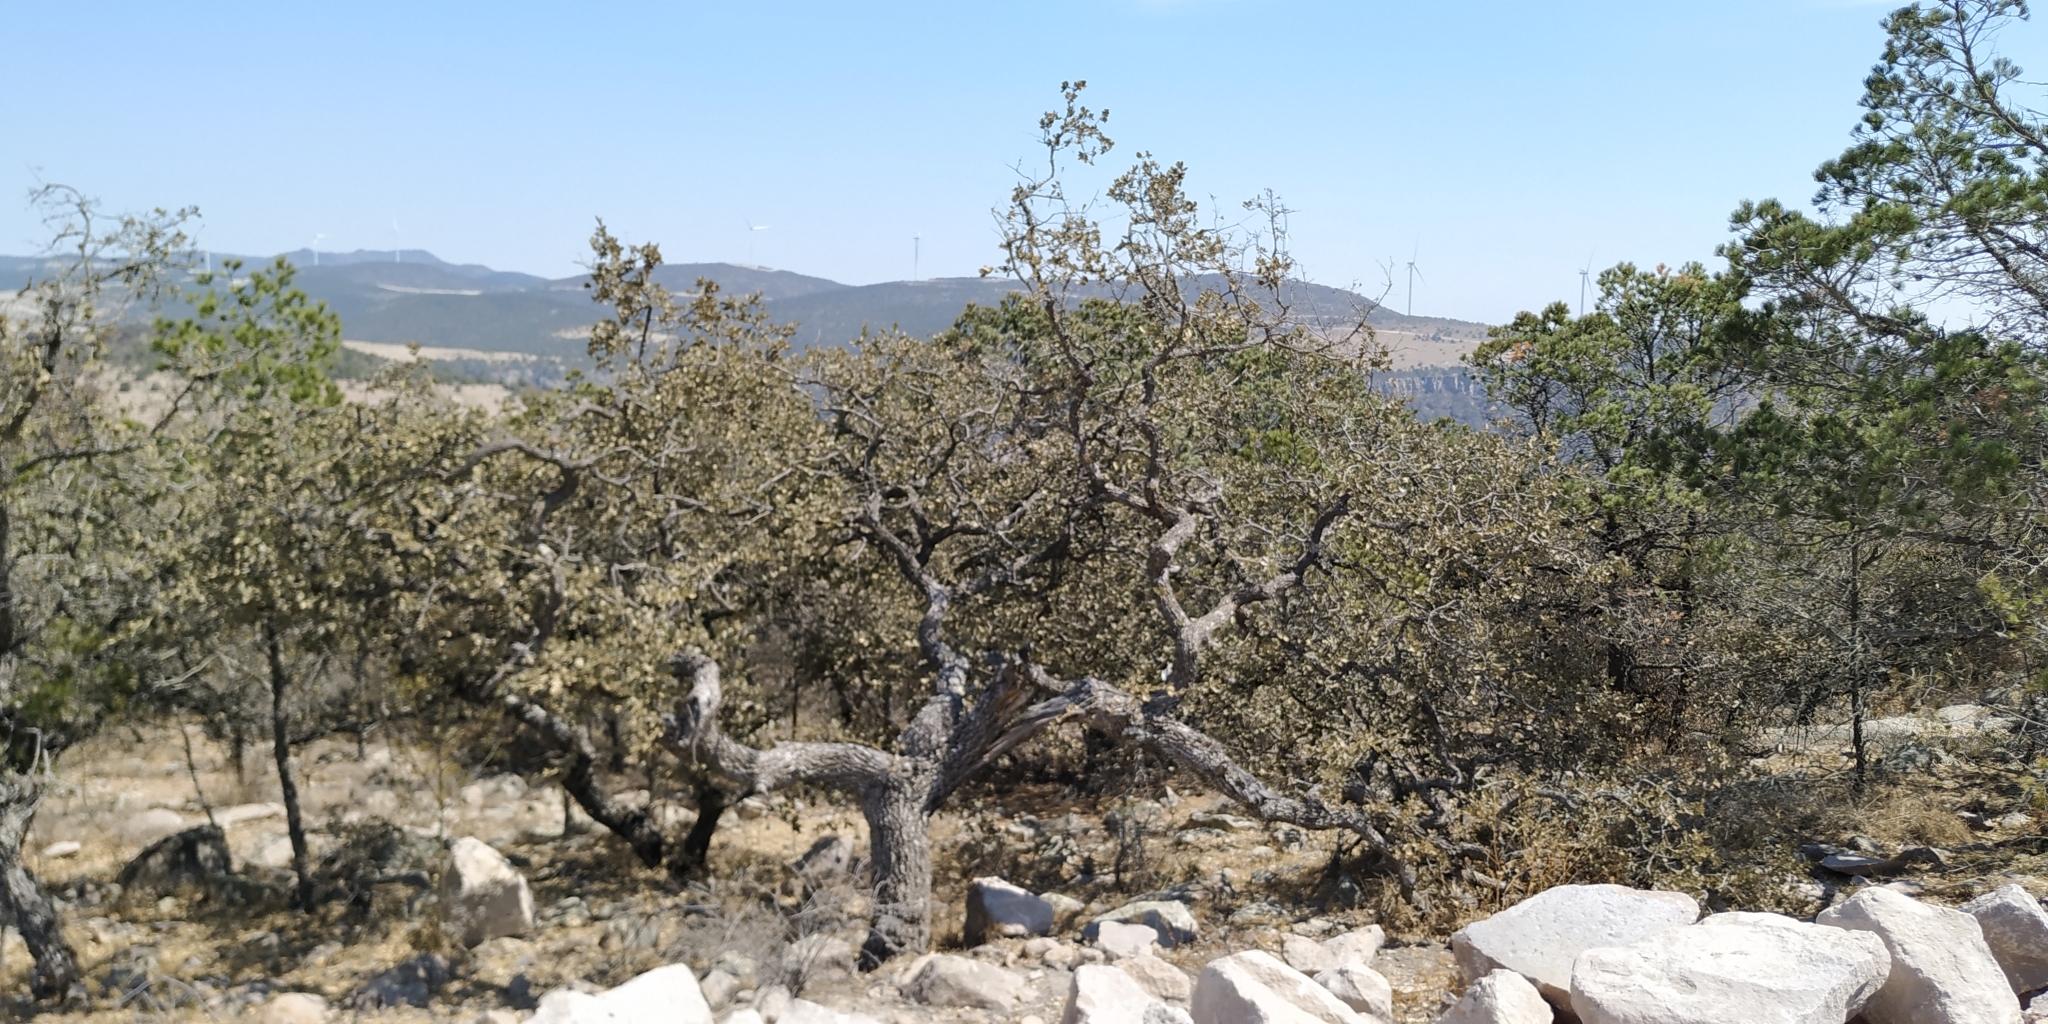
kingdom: Plantae
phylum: Tracheophyta
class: Magnoliopsida
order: Fagales
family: Fagaceae
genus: Quercus
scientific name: Quercus
